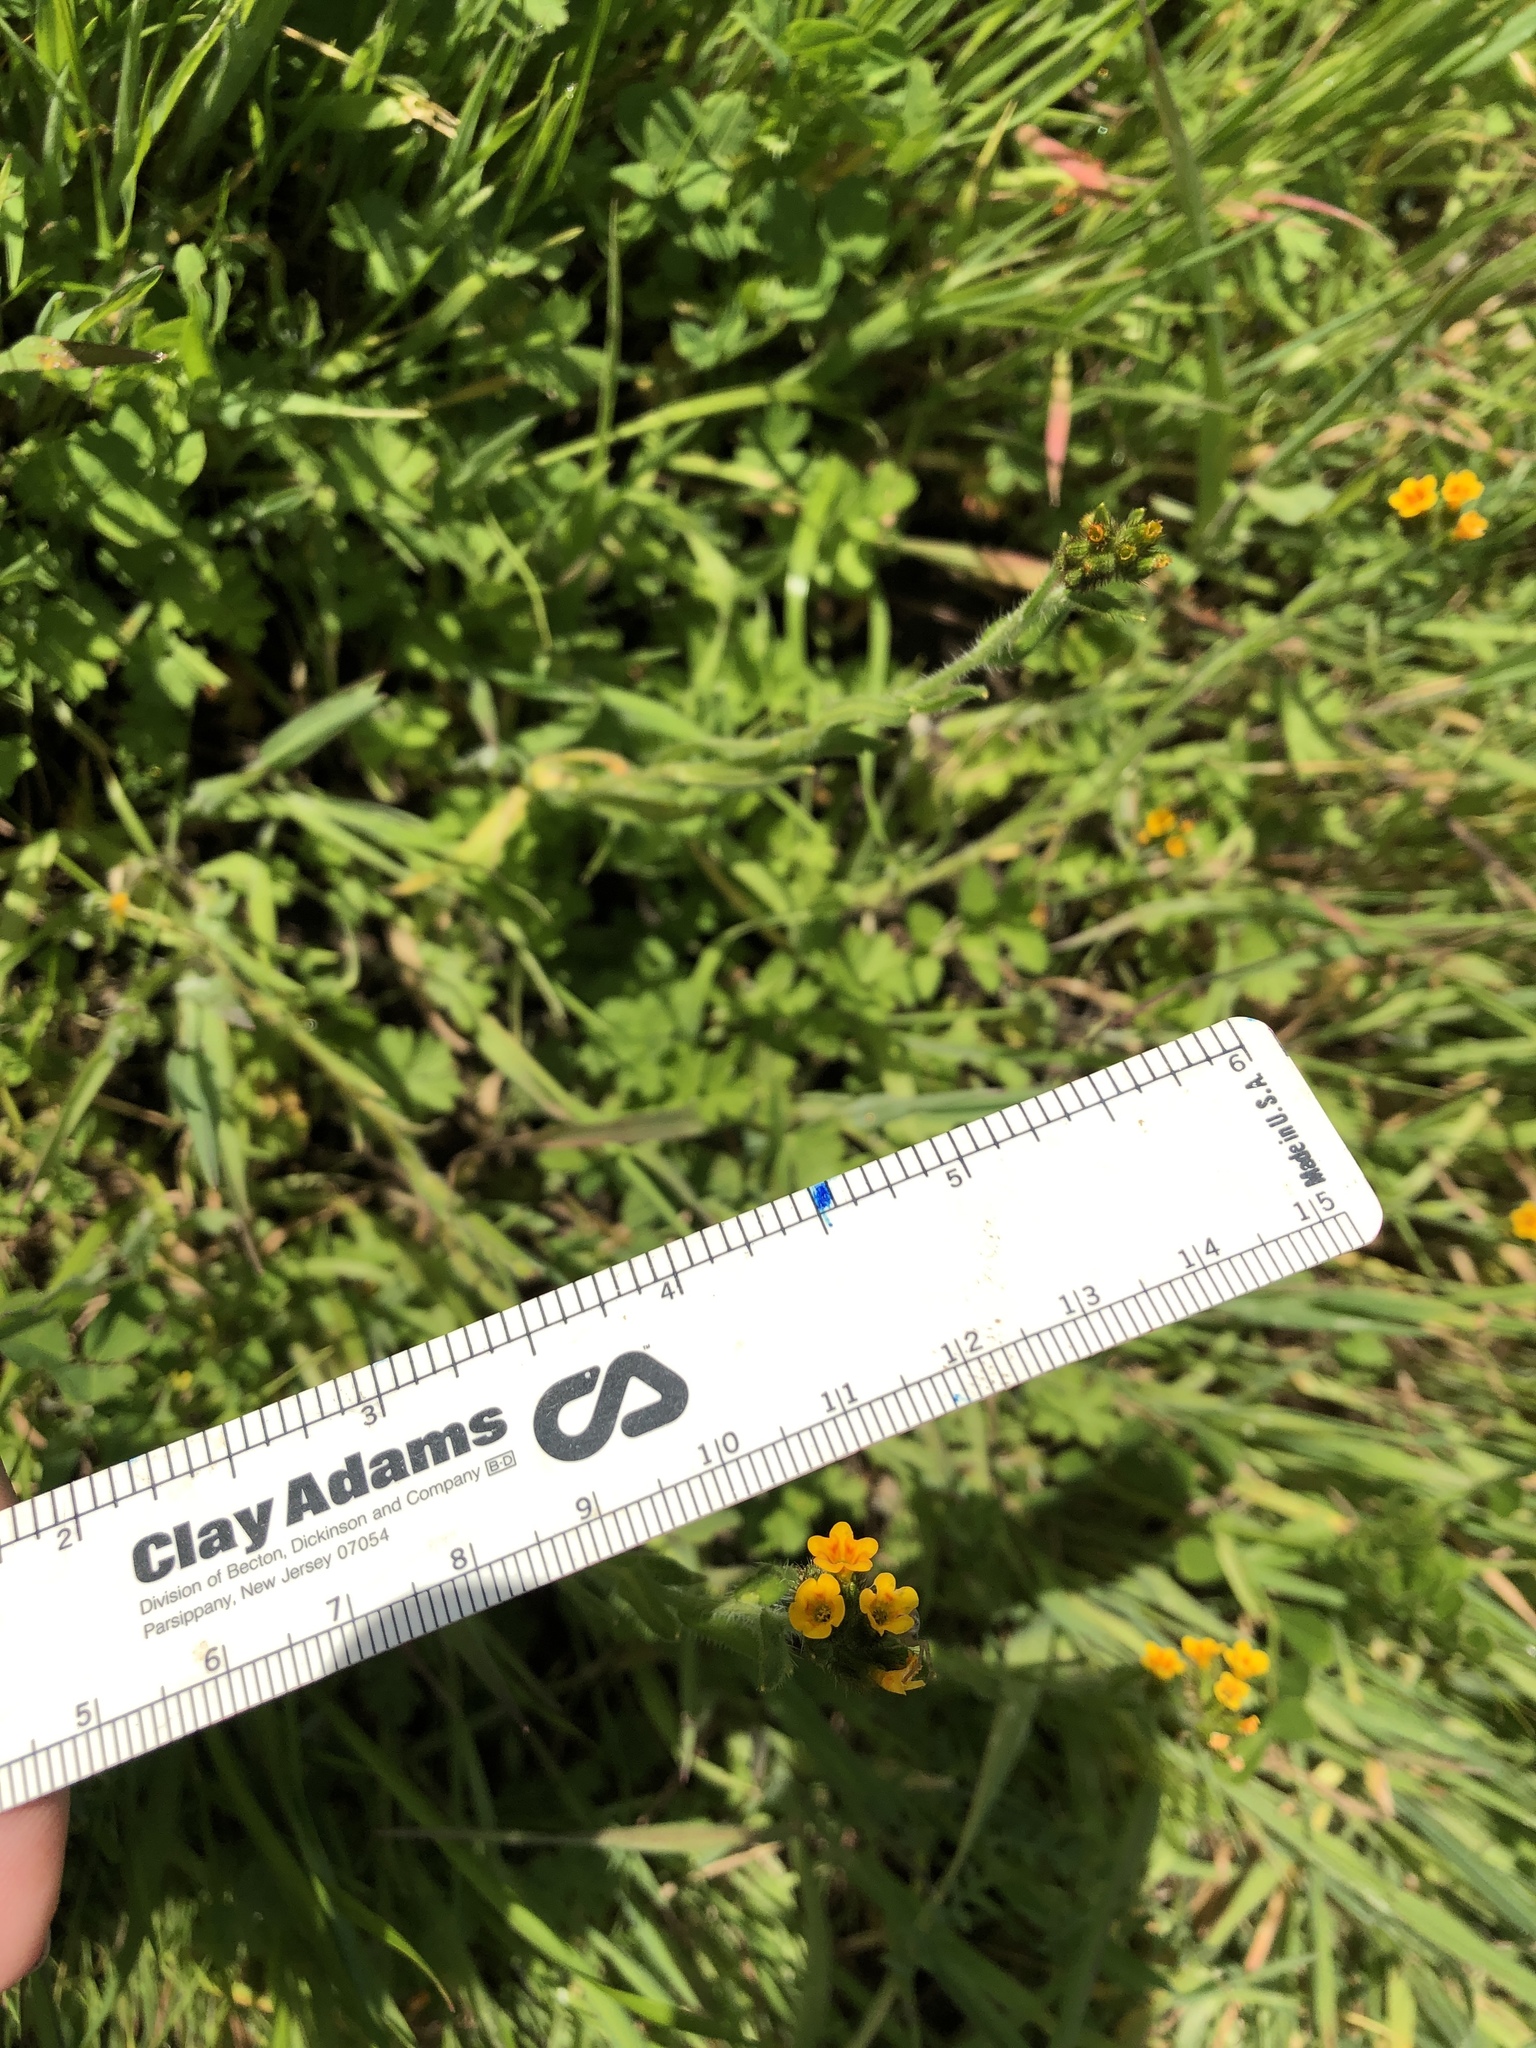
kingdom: Plantae
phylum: Tracheophyta
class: Magnoliopsida
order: Boraginales
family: Boraginaceae
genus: Amsinckia
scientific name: Amsinckia menziesii
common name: Menzies' fiddleneck
